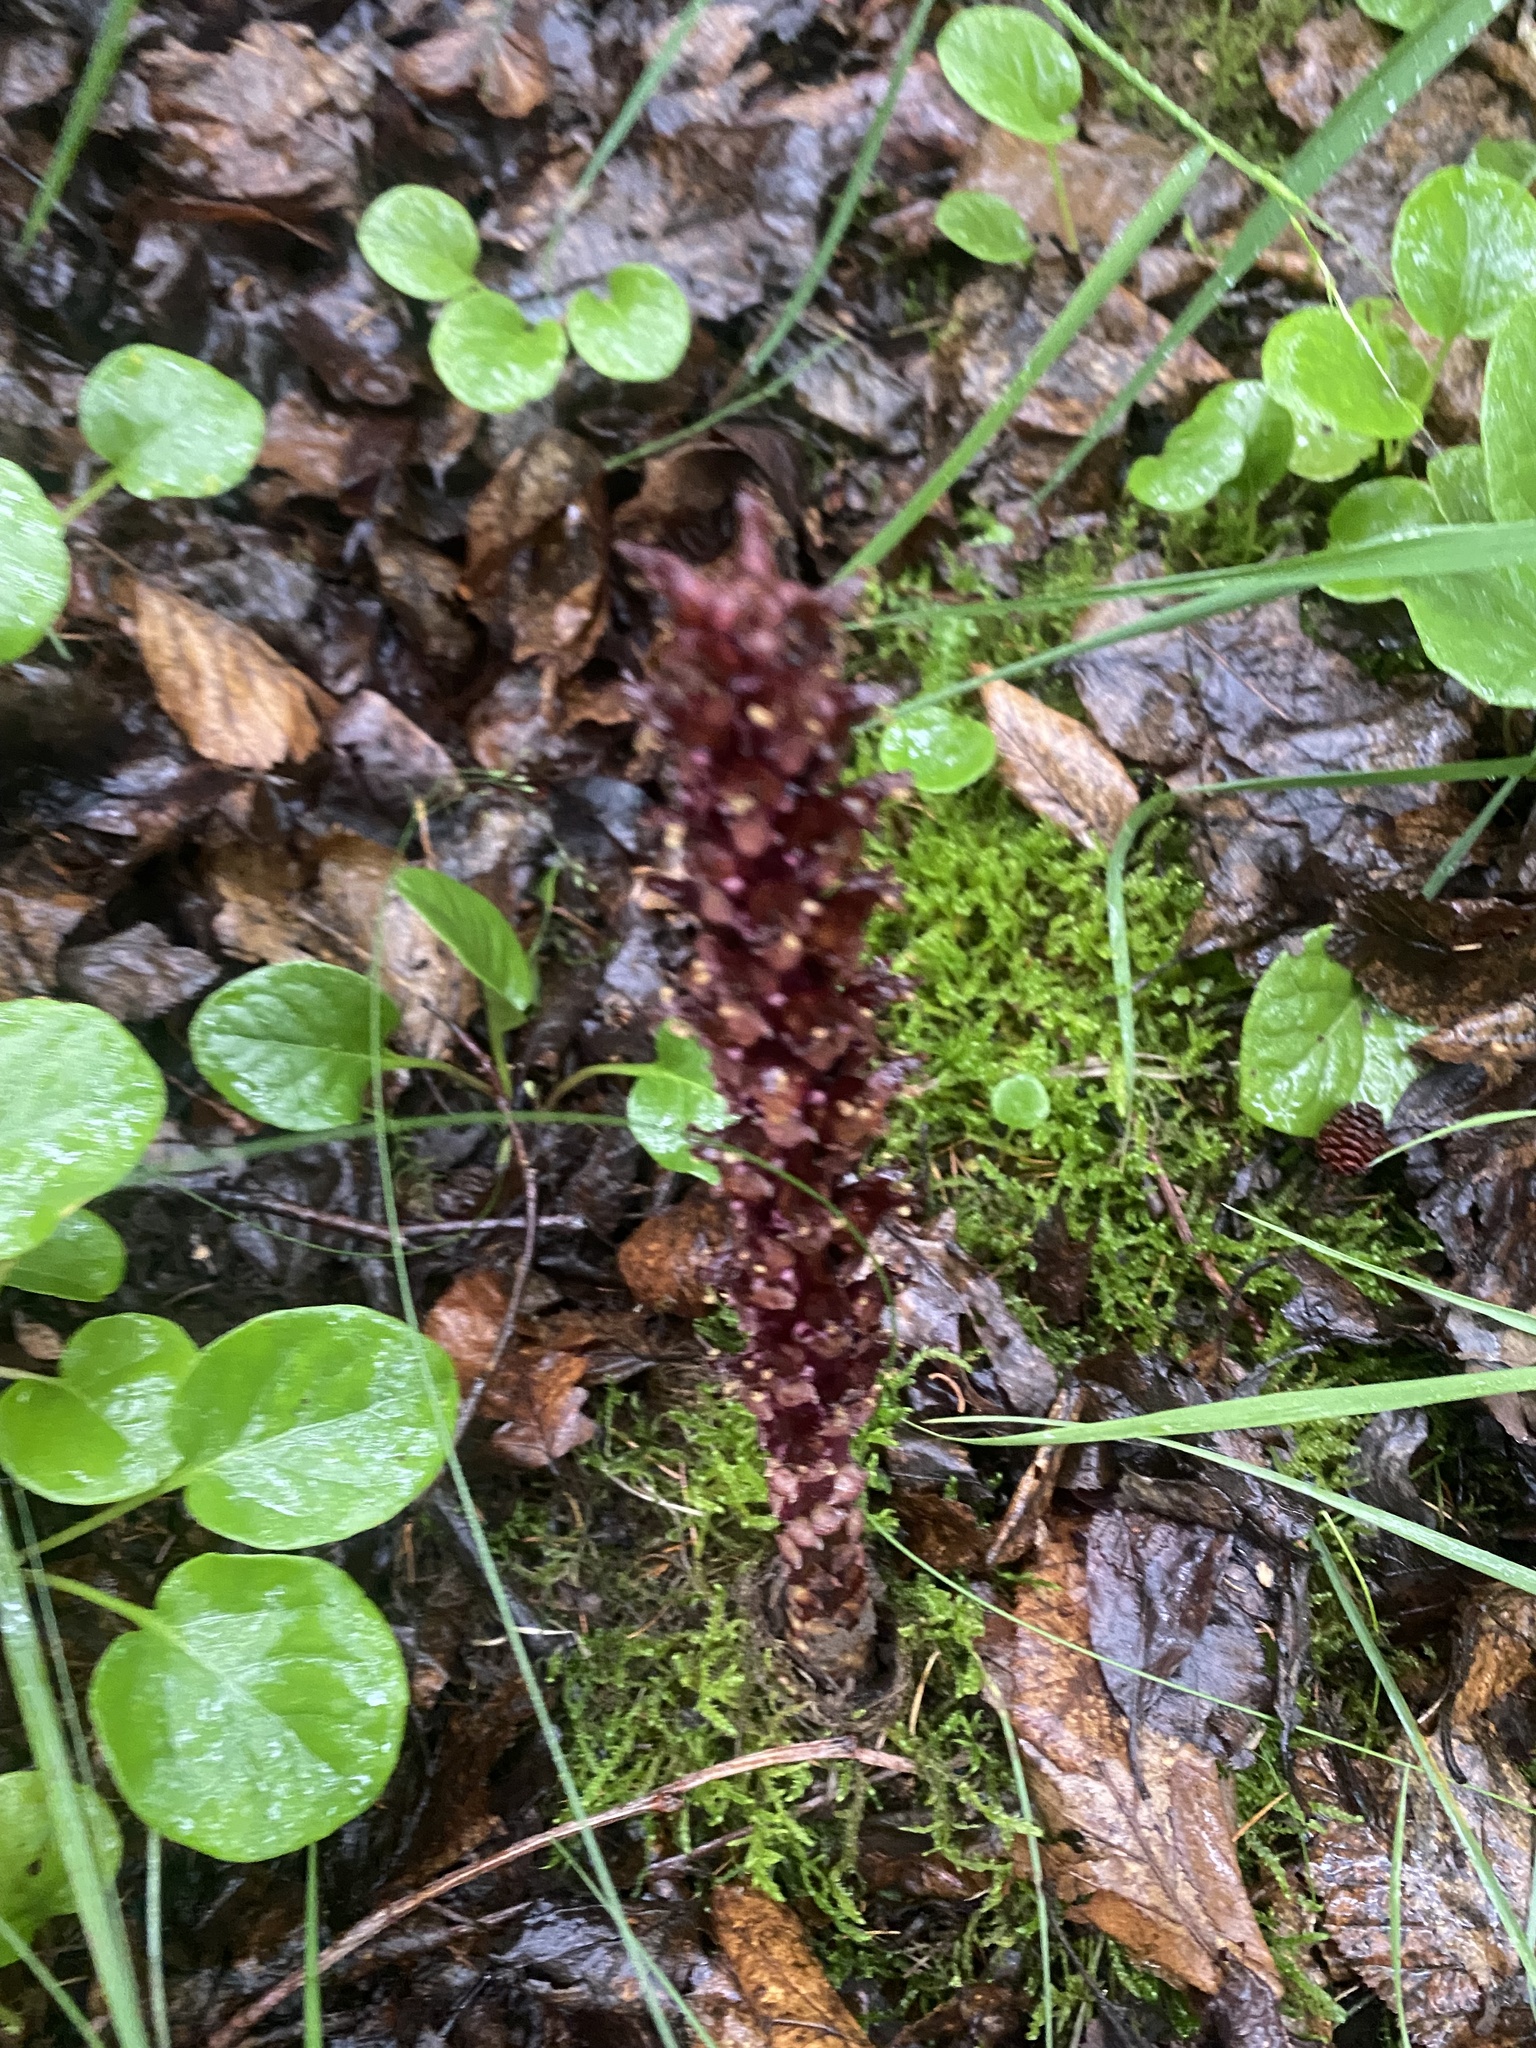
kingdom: Plantae
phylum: Tracheophyta
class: Magnoliopsida
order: Lamiales
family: Orobanchaceae
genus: Boschniakia
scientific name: Boschniakia rossica
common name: Poque
